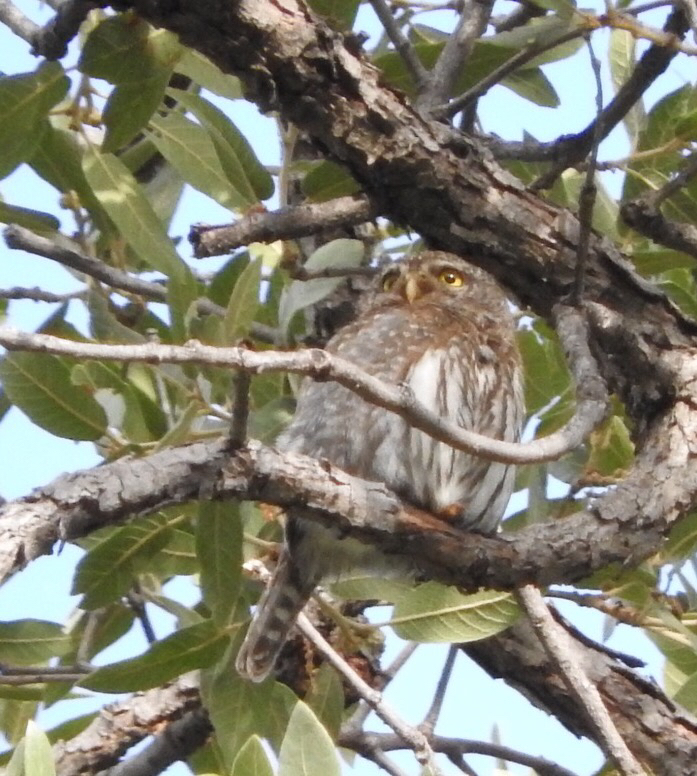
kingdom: Animalia
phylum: Chordata
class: Aves
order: Strigiformes
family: Strigidae
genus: Glaucidium
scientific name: Glaucidium gnoma
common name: Northern pygmy-owl
